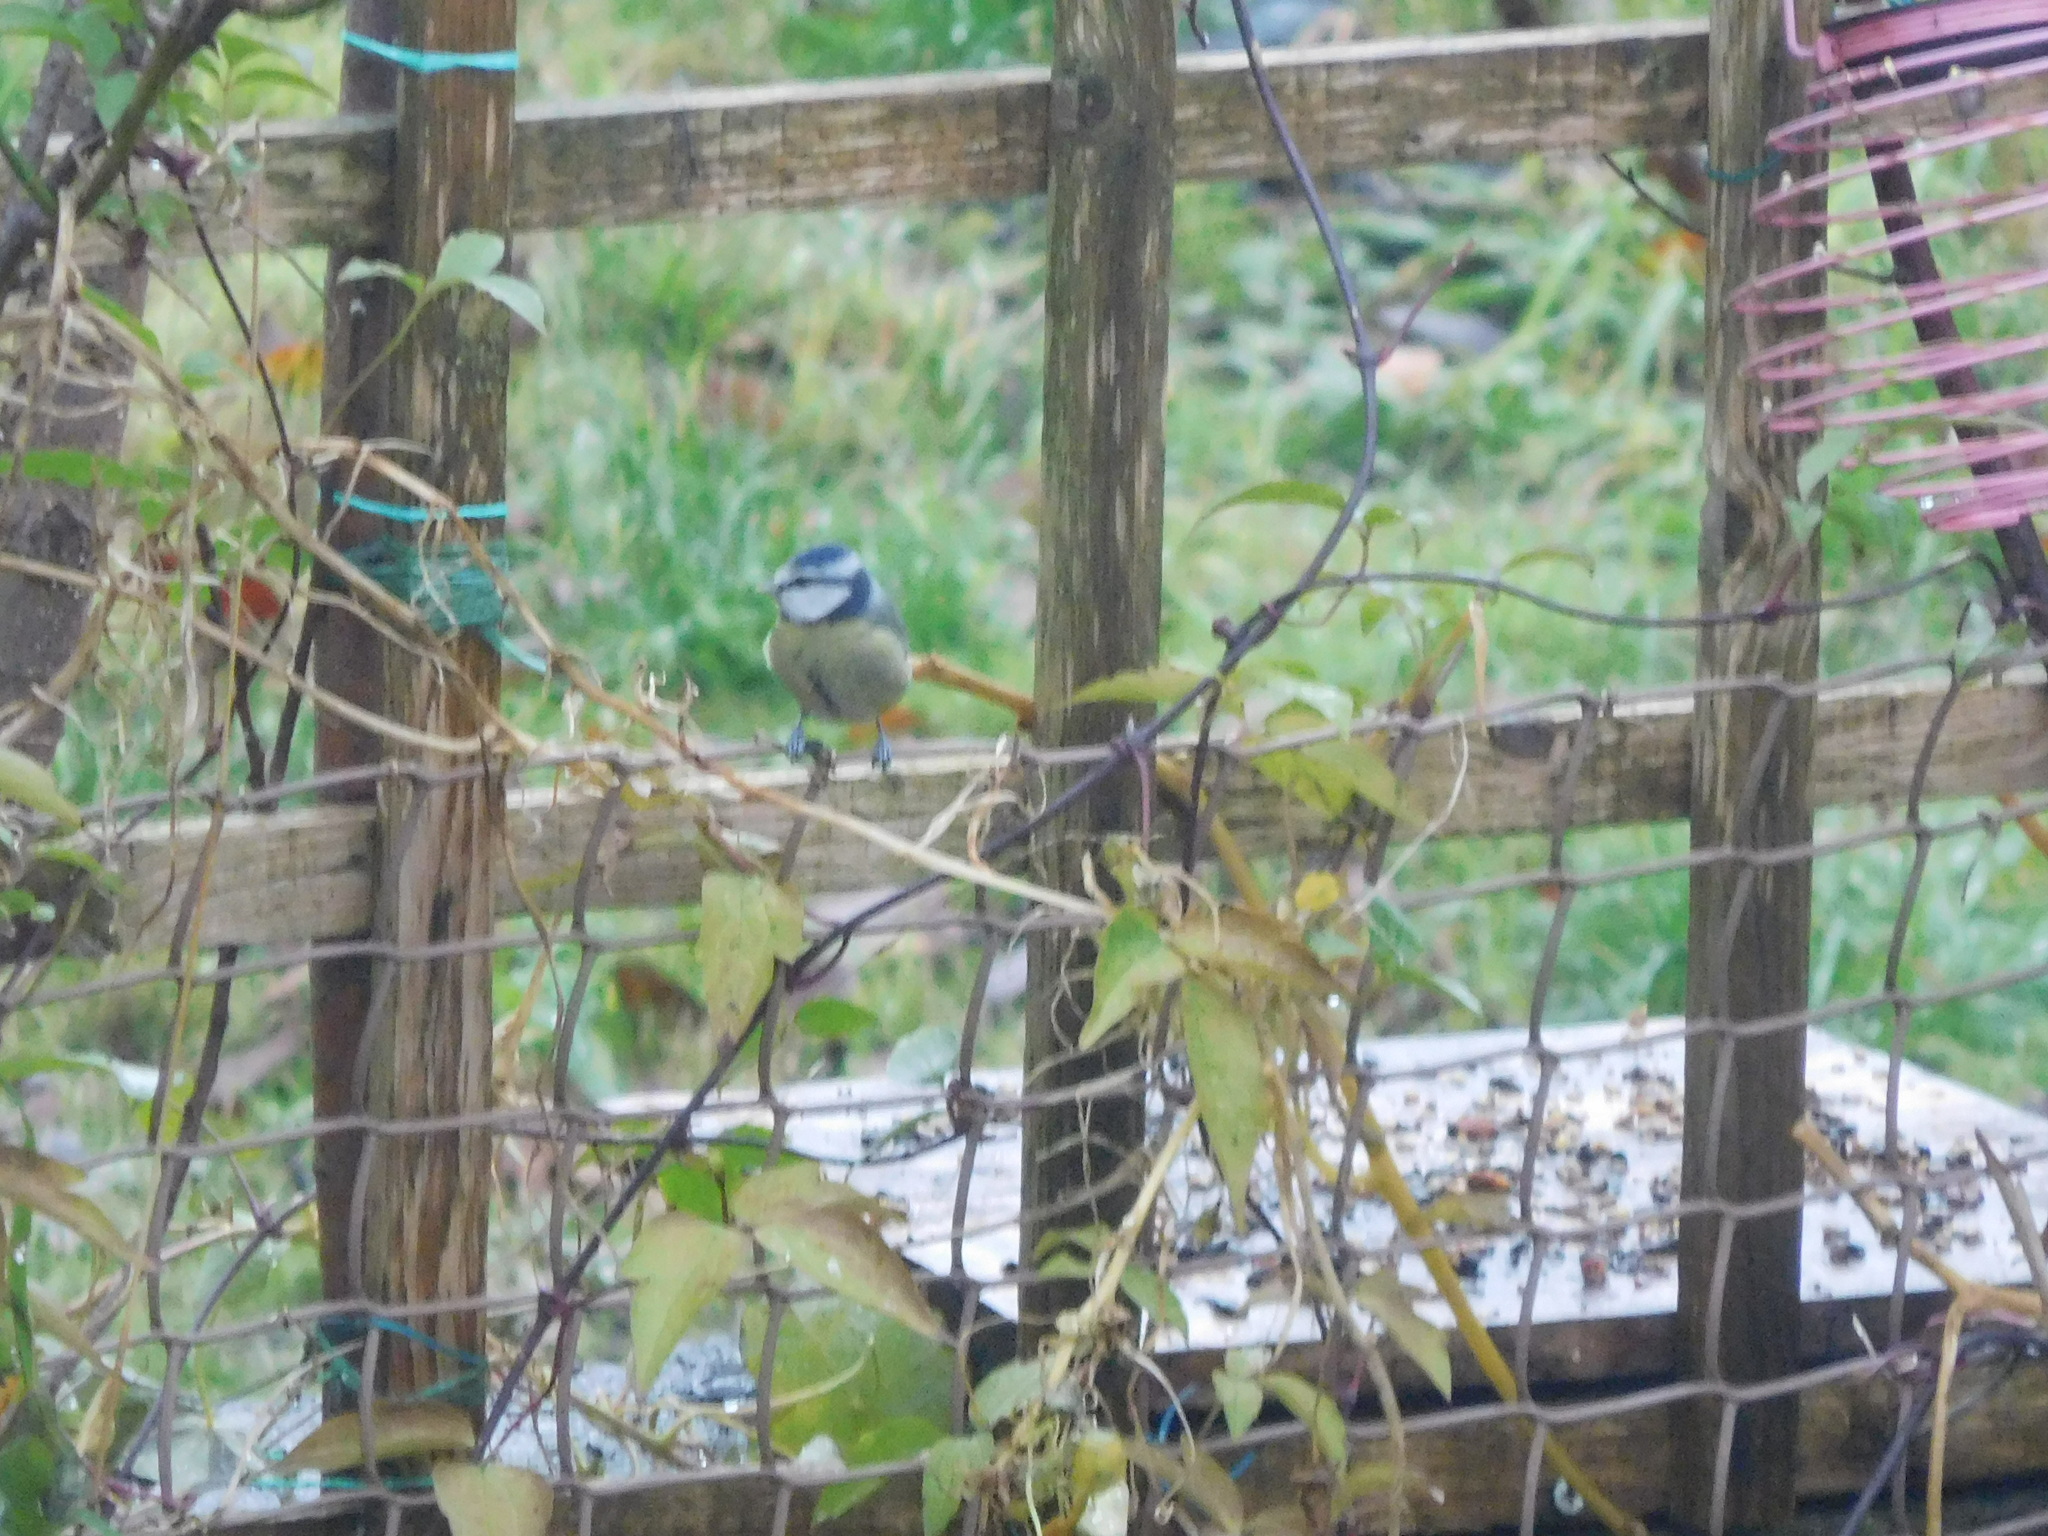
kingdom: Animalia
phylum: Chordata
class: Aves
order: Passeriformes
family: Paridae
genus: Cyanistes
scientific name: Cyanistes caeruleus
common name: Eurasian blue tit
